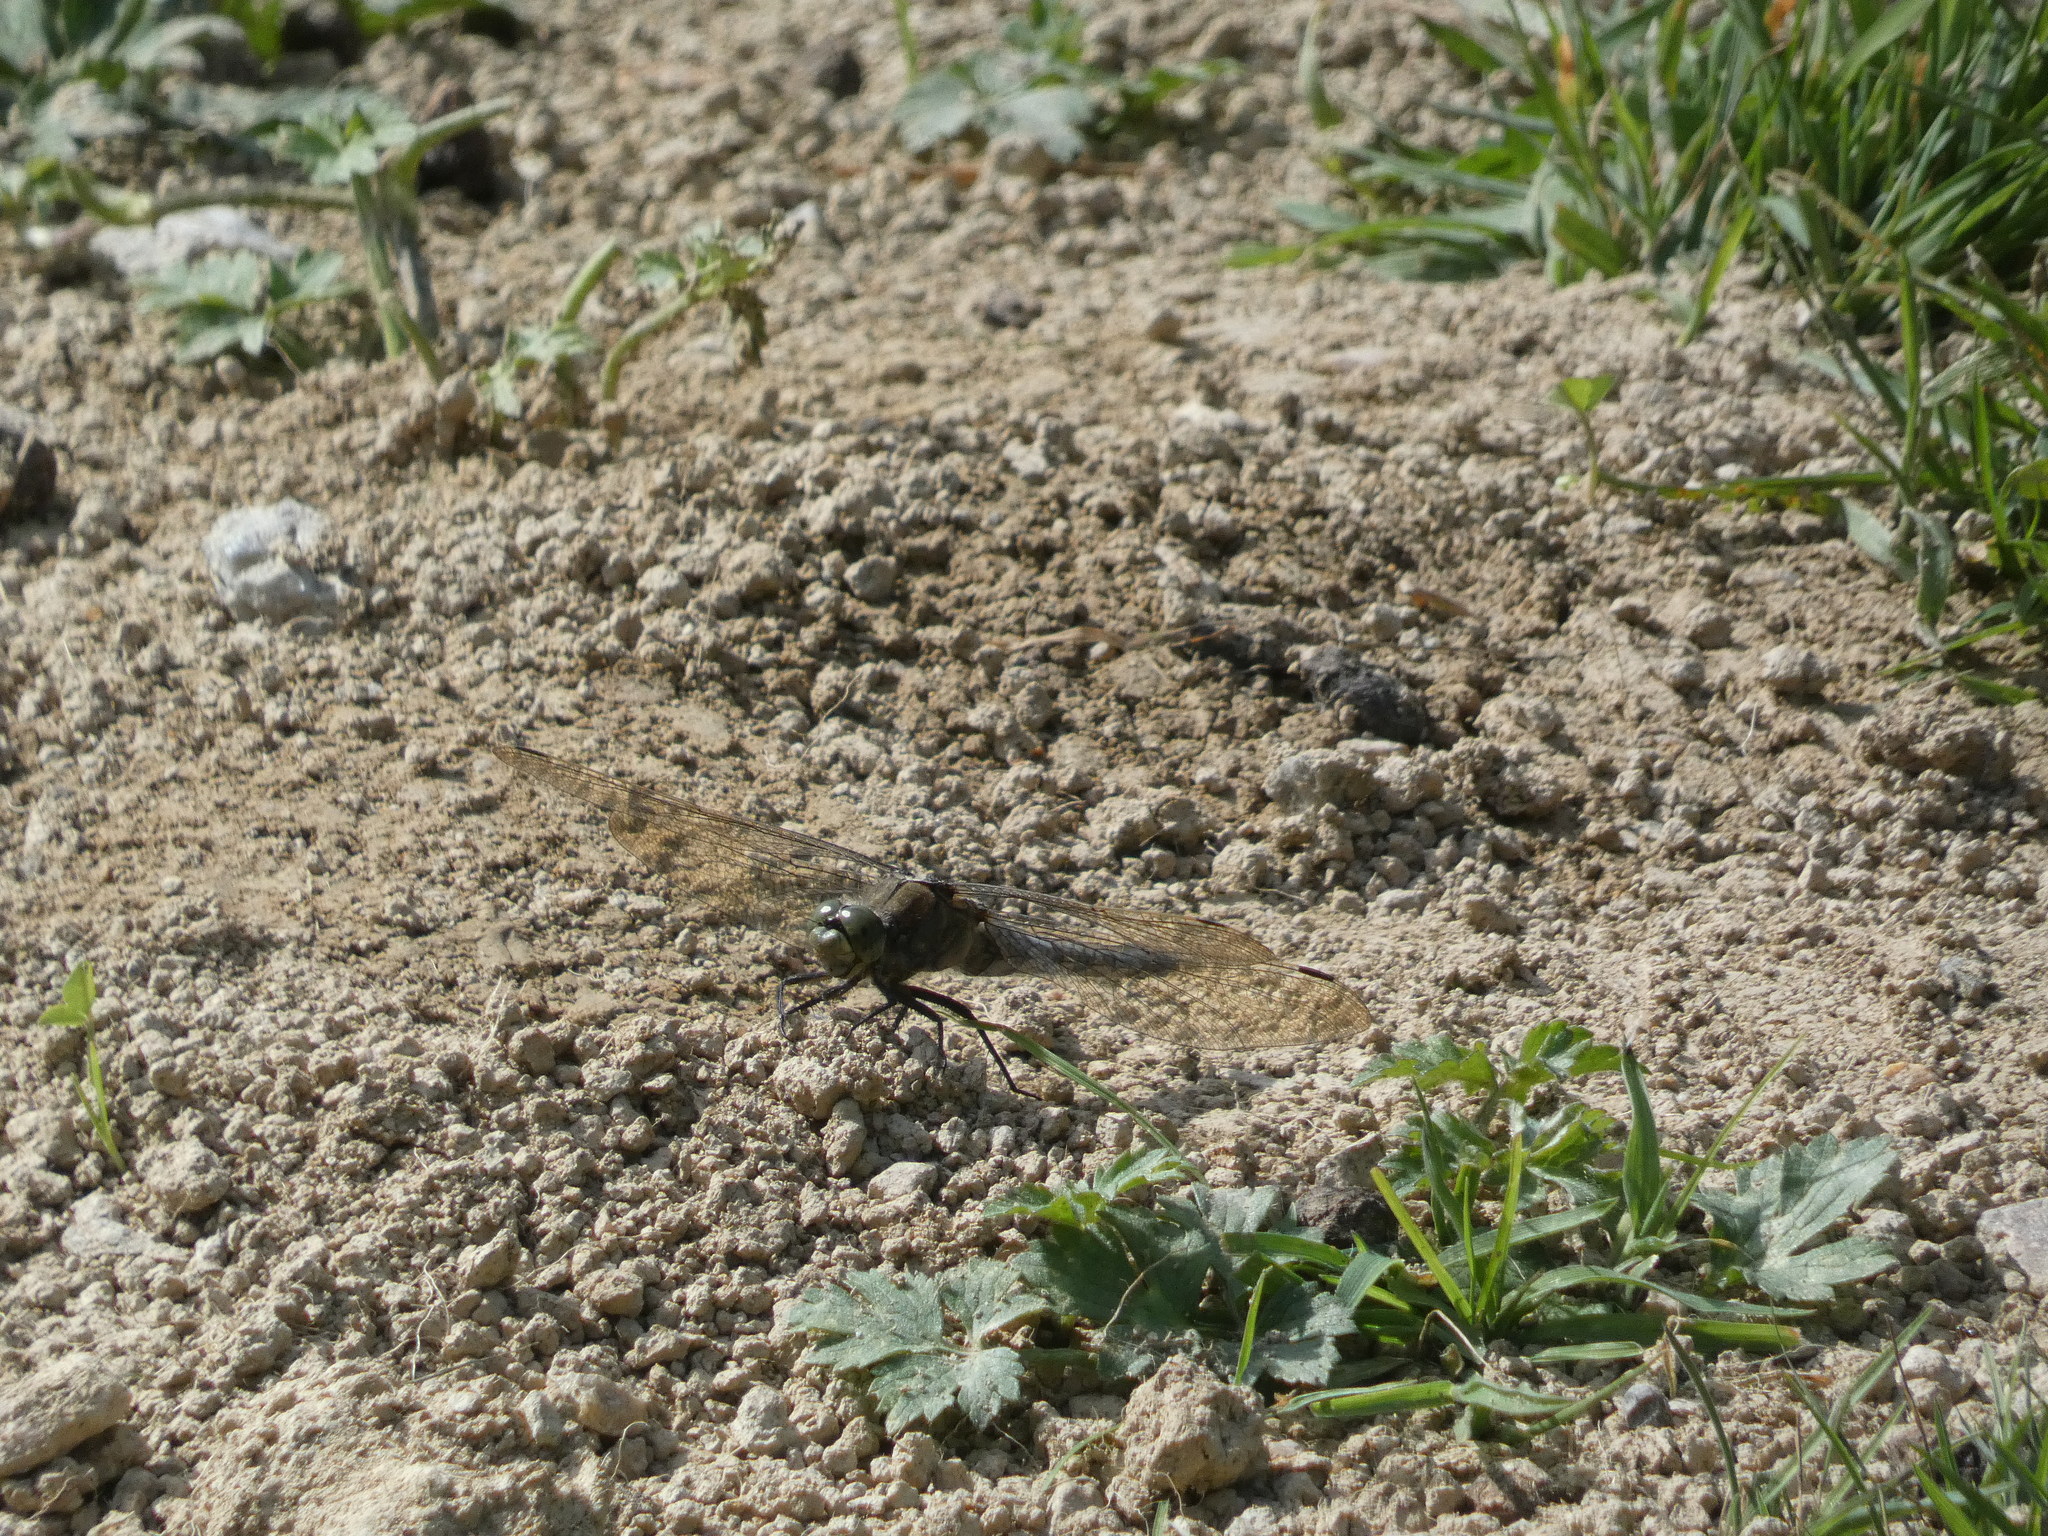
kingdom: Animalia
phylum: Arthropoda
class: Insecta
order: Odonata
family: Libellulidae
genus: Orthetrum
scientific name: Orthetrum cancellatum
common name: Black-tailed skimmer
